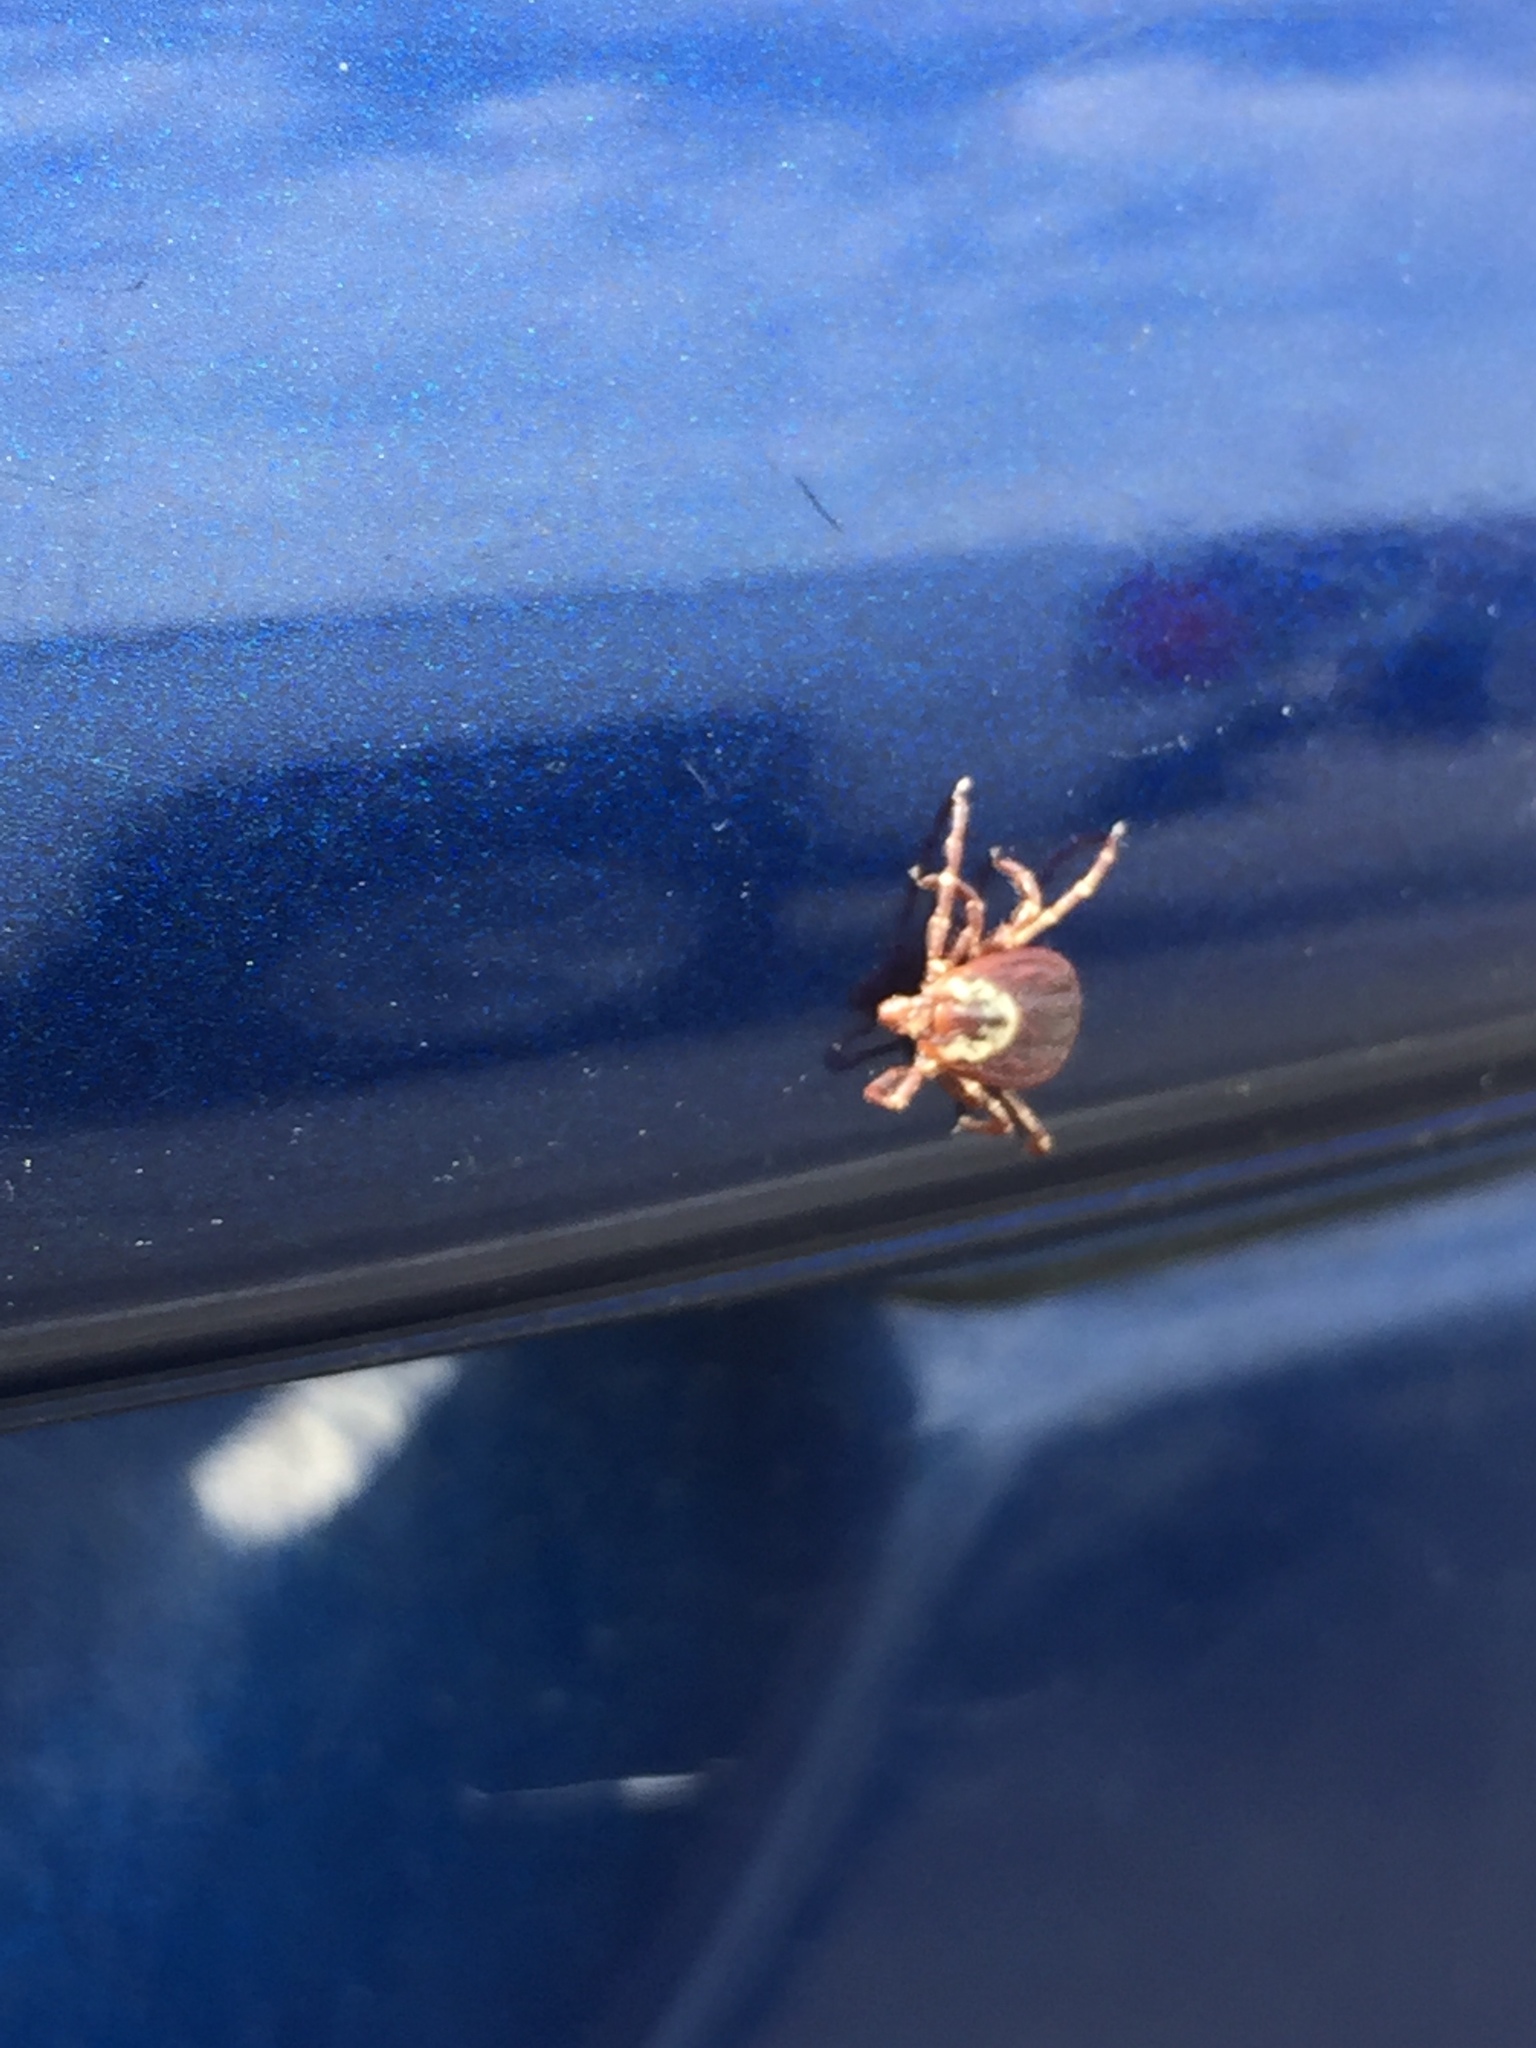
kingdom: Animalia
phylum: Arthropoda
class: Arachnida
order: Ixodida
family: Ixodidae
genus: Dermacentor
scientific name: Dermacentor variabilis
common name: American dog tick
